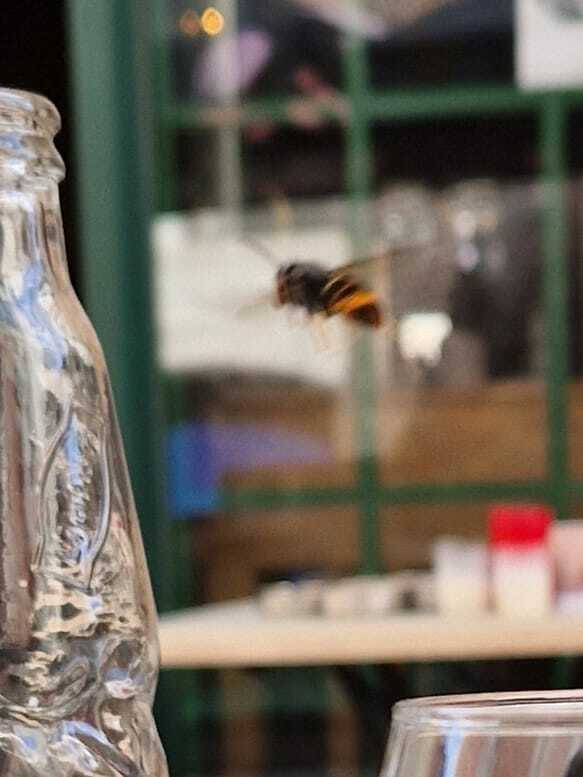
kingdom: Animalia
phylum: Arthropoda
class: Insecta
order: Hymenoptera
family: Vespidae
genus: Vespa
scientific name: Vespa velutina
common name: Asian hornet
